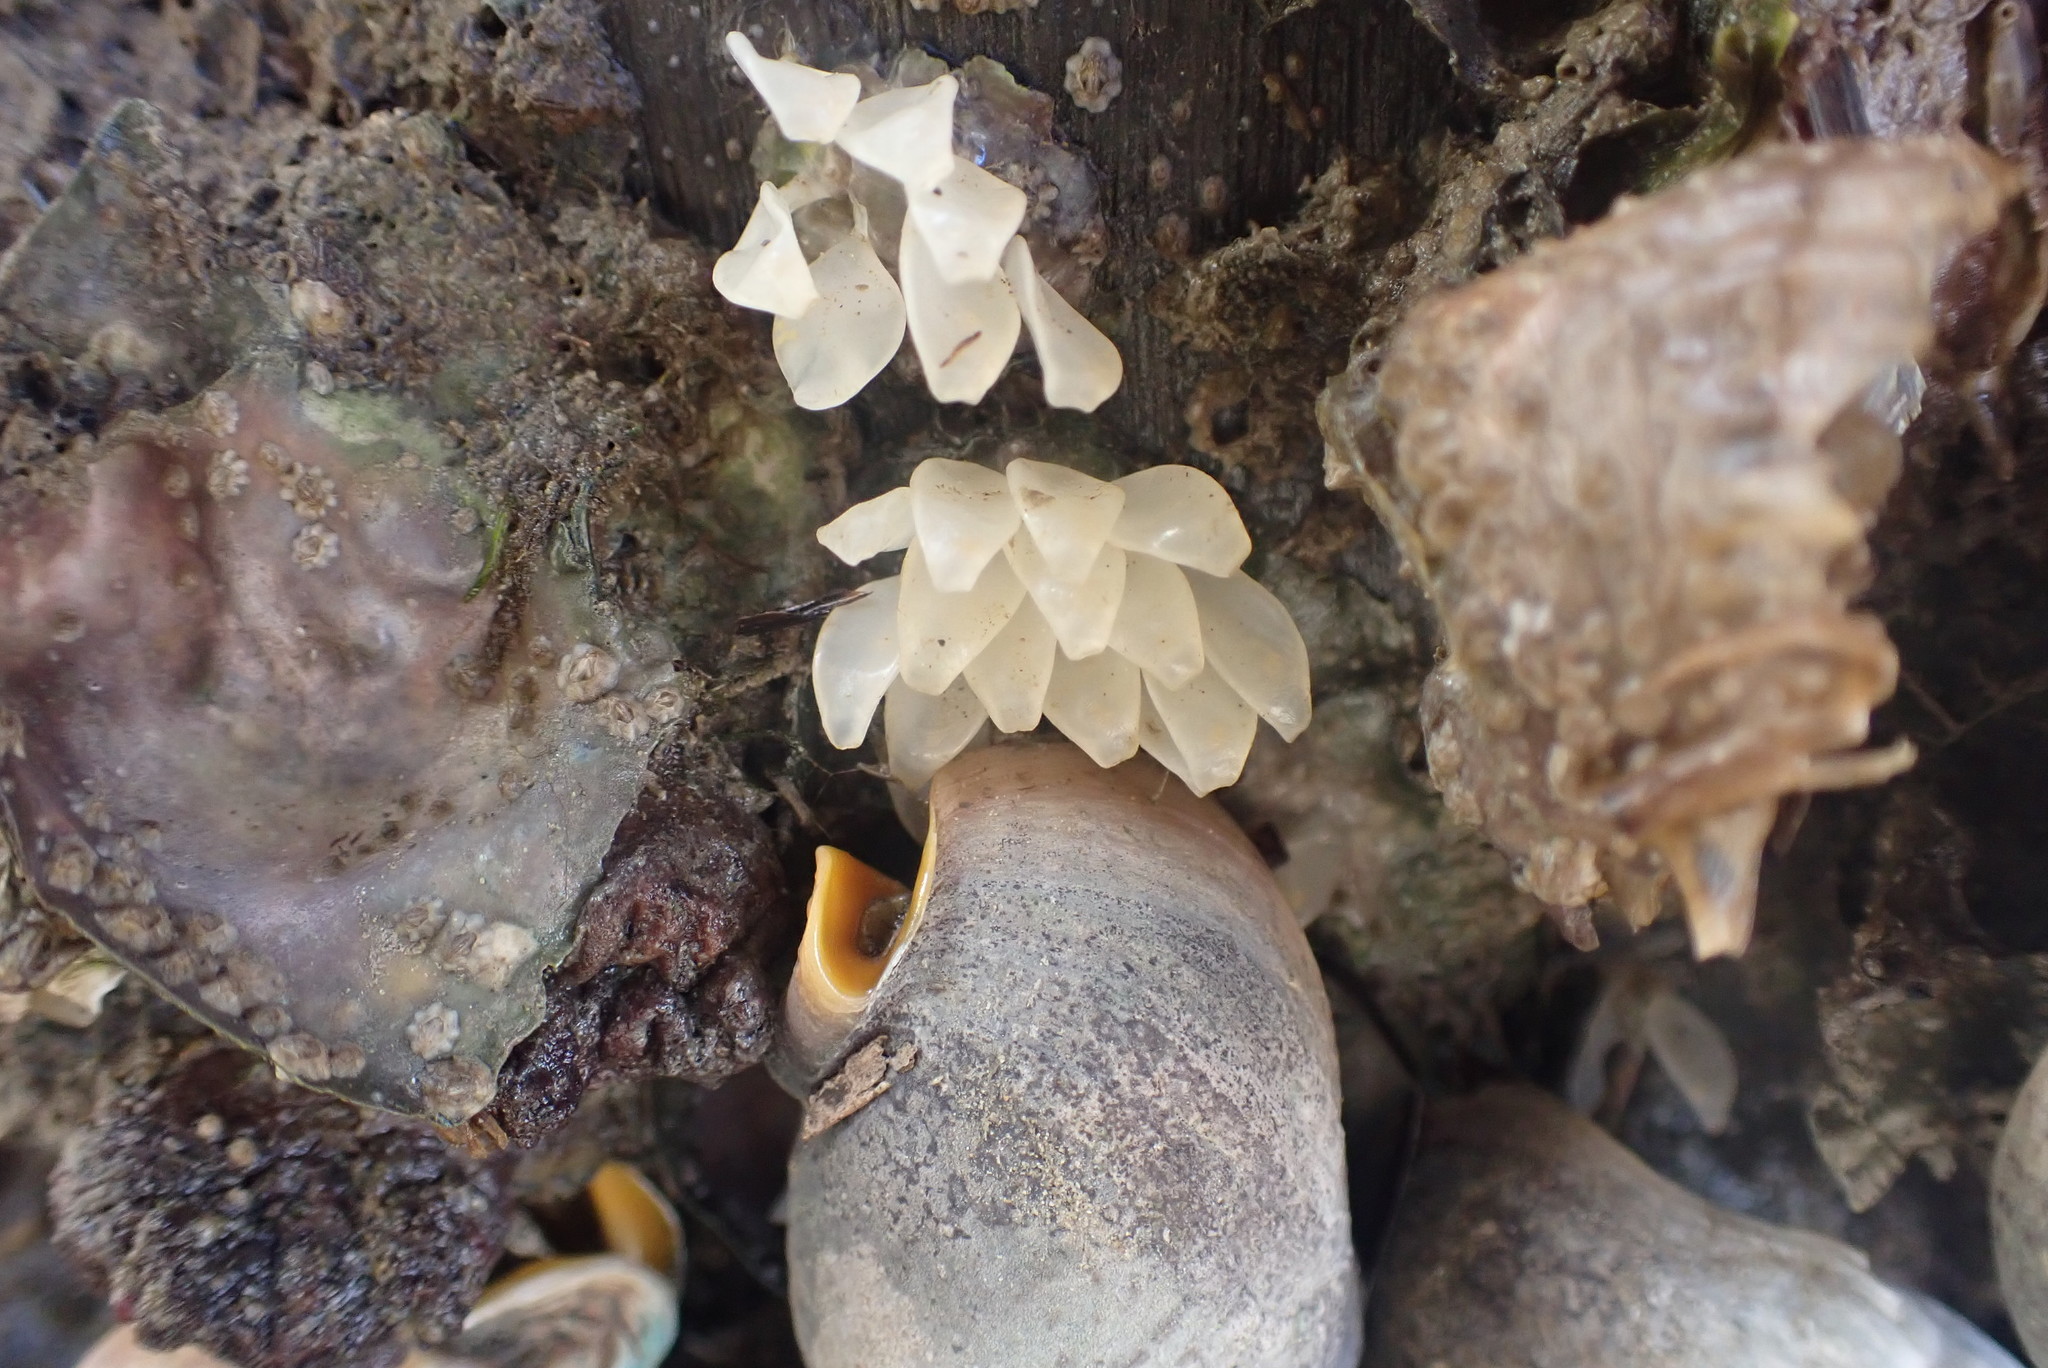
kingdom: Animalia
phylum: Mollusca
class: Gastropoda
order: Neogastropoda
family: Cominellidae
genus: Cominella
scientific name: Cominella adspersa
